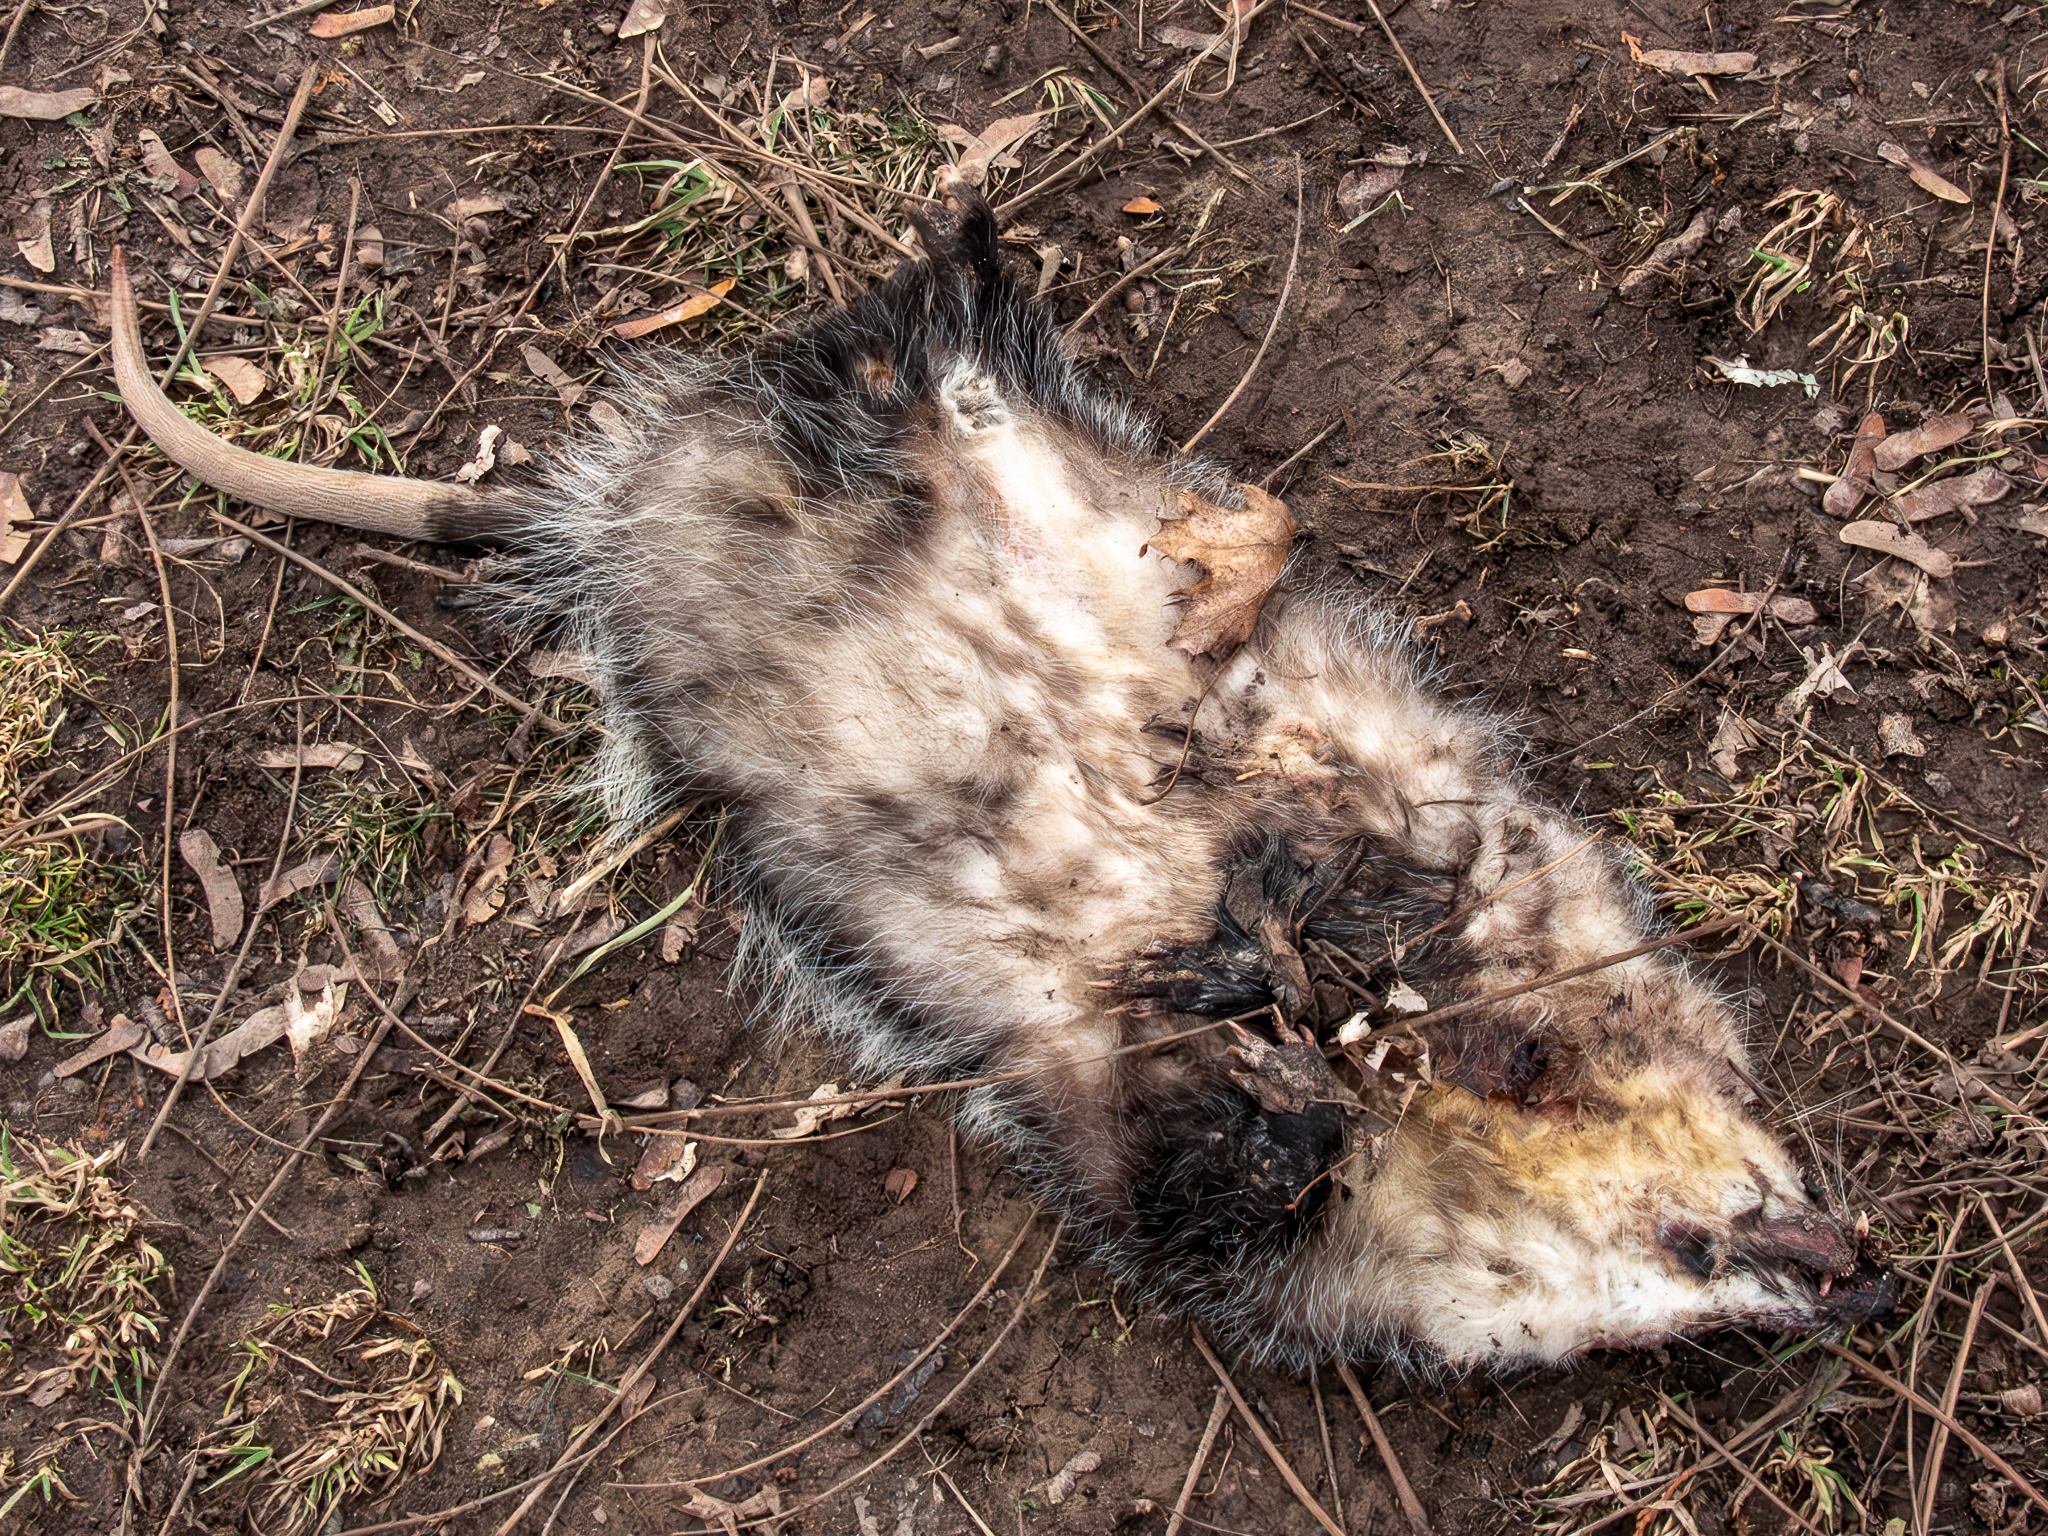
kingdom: Animalia
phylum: Chordata
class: Mammalia
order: Didelphimorphia
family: Didelphidae
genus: Didelphis
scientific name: Didelphis virginiana
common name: Virginia opossum
